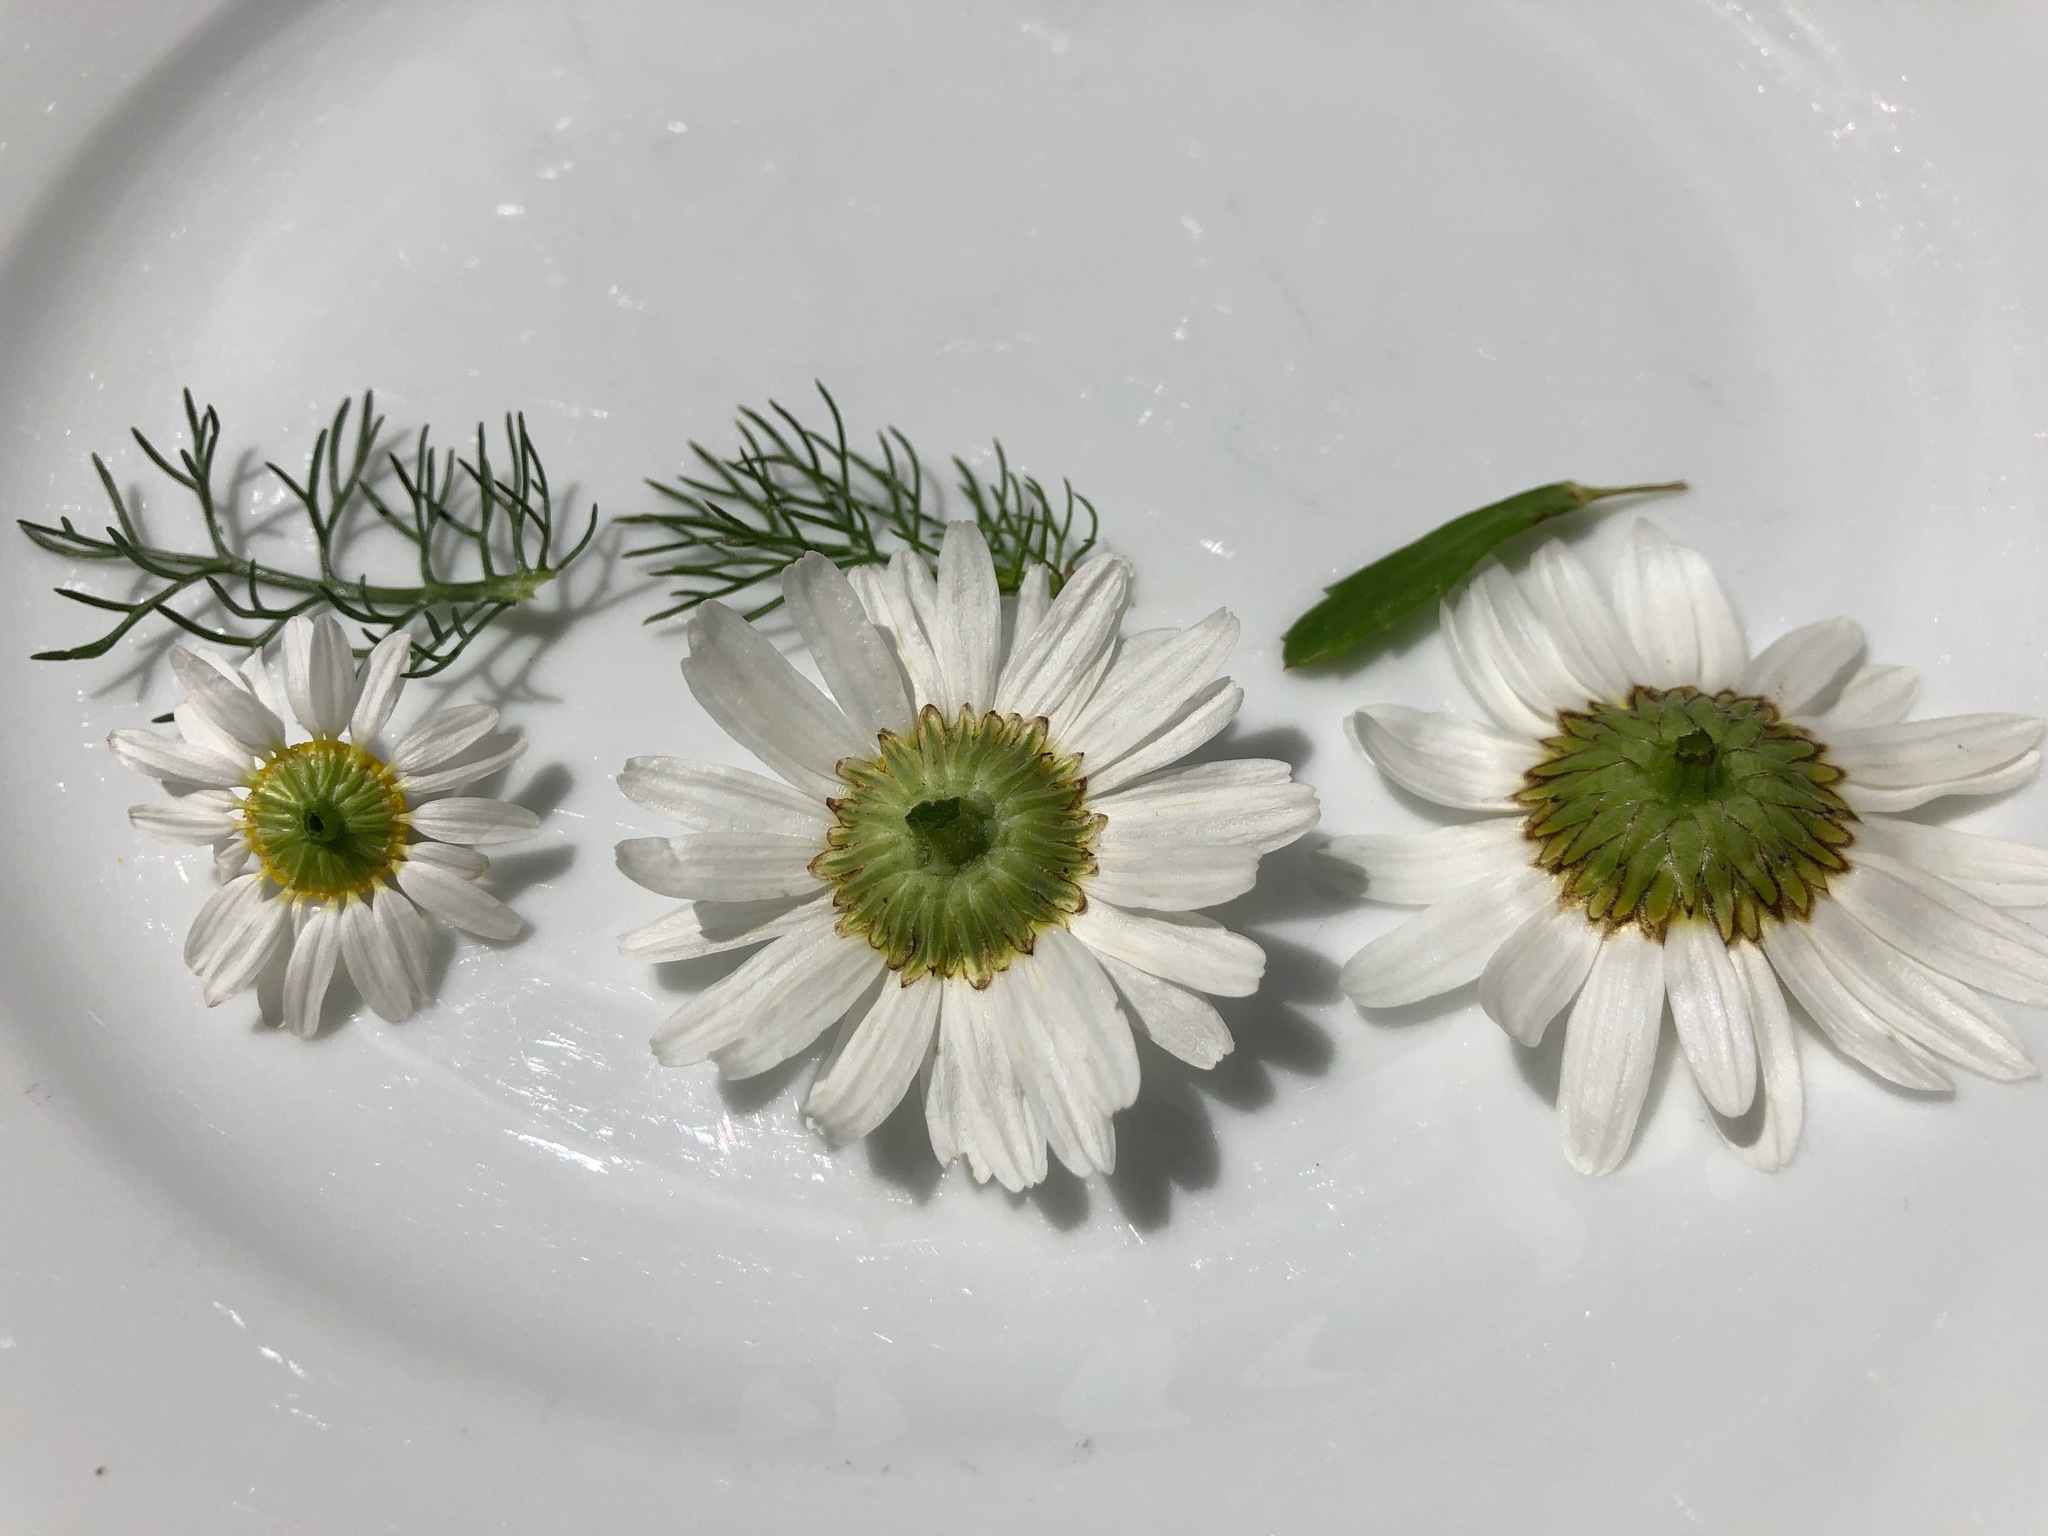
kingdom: Plantae
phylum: Tracheophyta
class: Magnoliopsida
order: Asterales
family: Asteraceae
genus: Matricaria
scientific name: Matricaria chamomilla
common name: Scented mayweed
